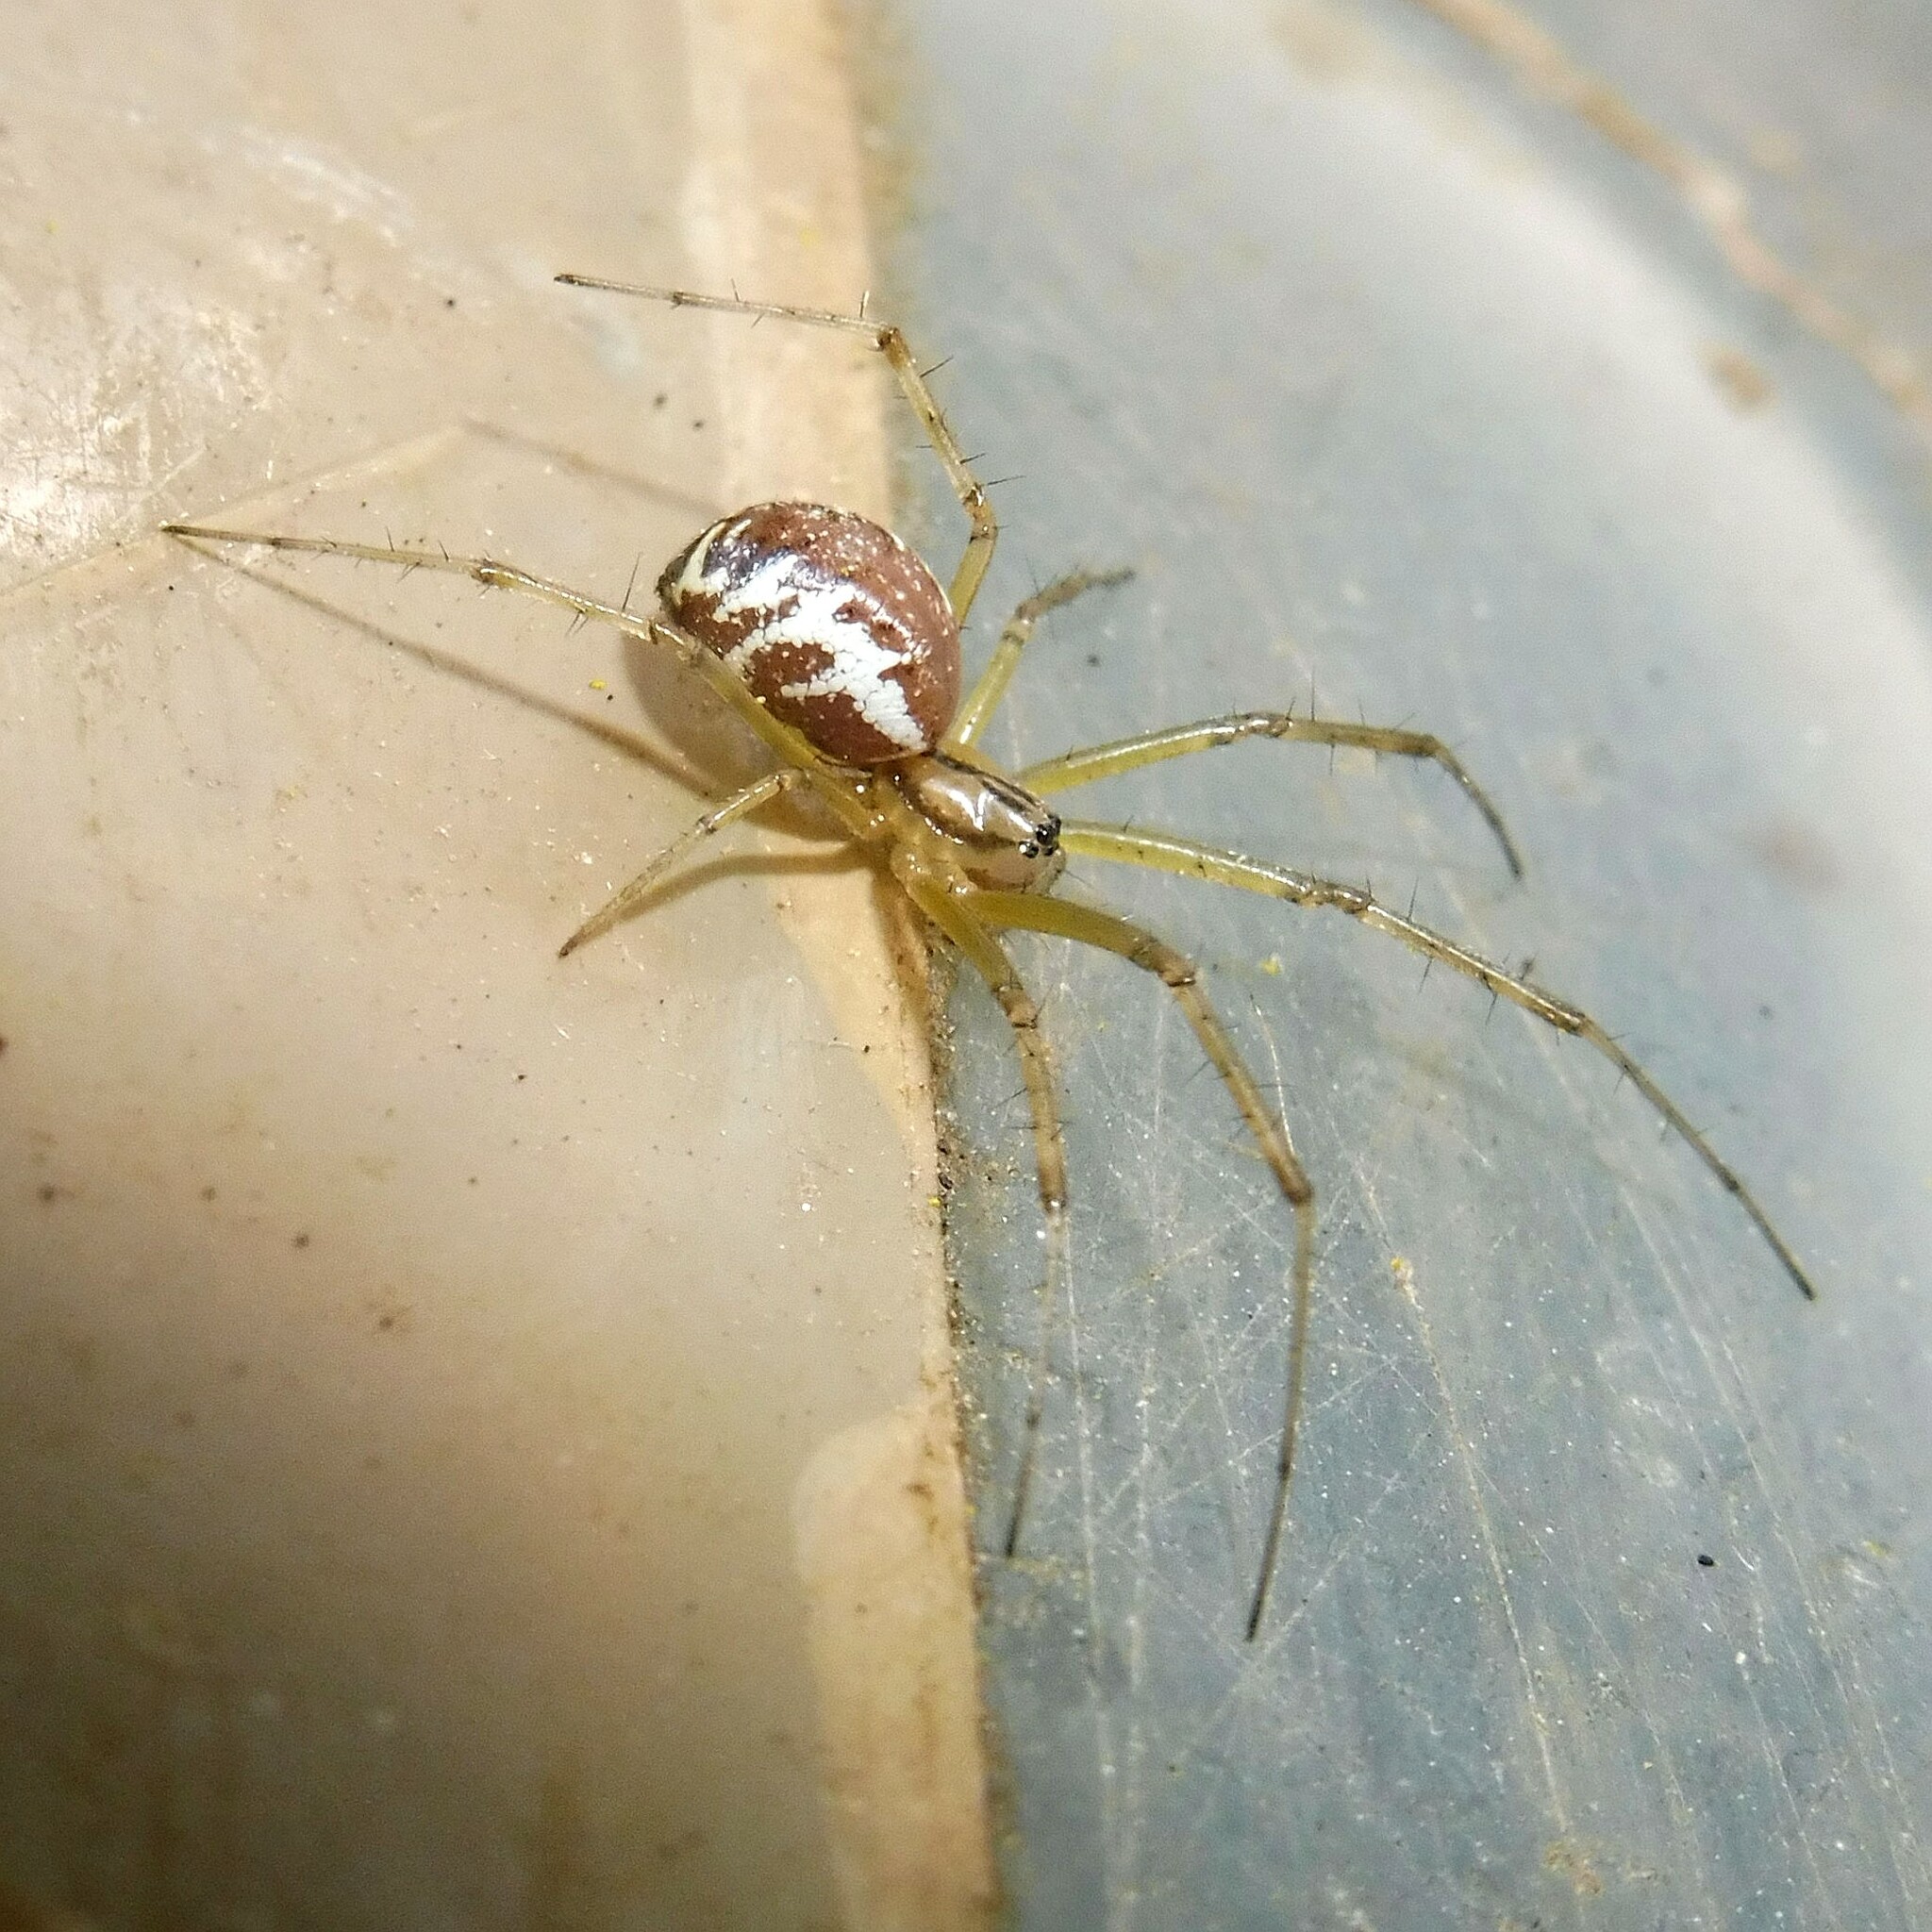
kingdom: Animalia
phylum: Arthropoda
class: Arachnida
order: Araneae
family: Linyphiidae
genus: Linyphia
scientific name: Linyphia triangularis
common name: Money spider
